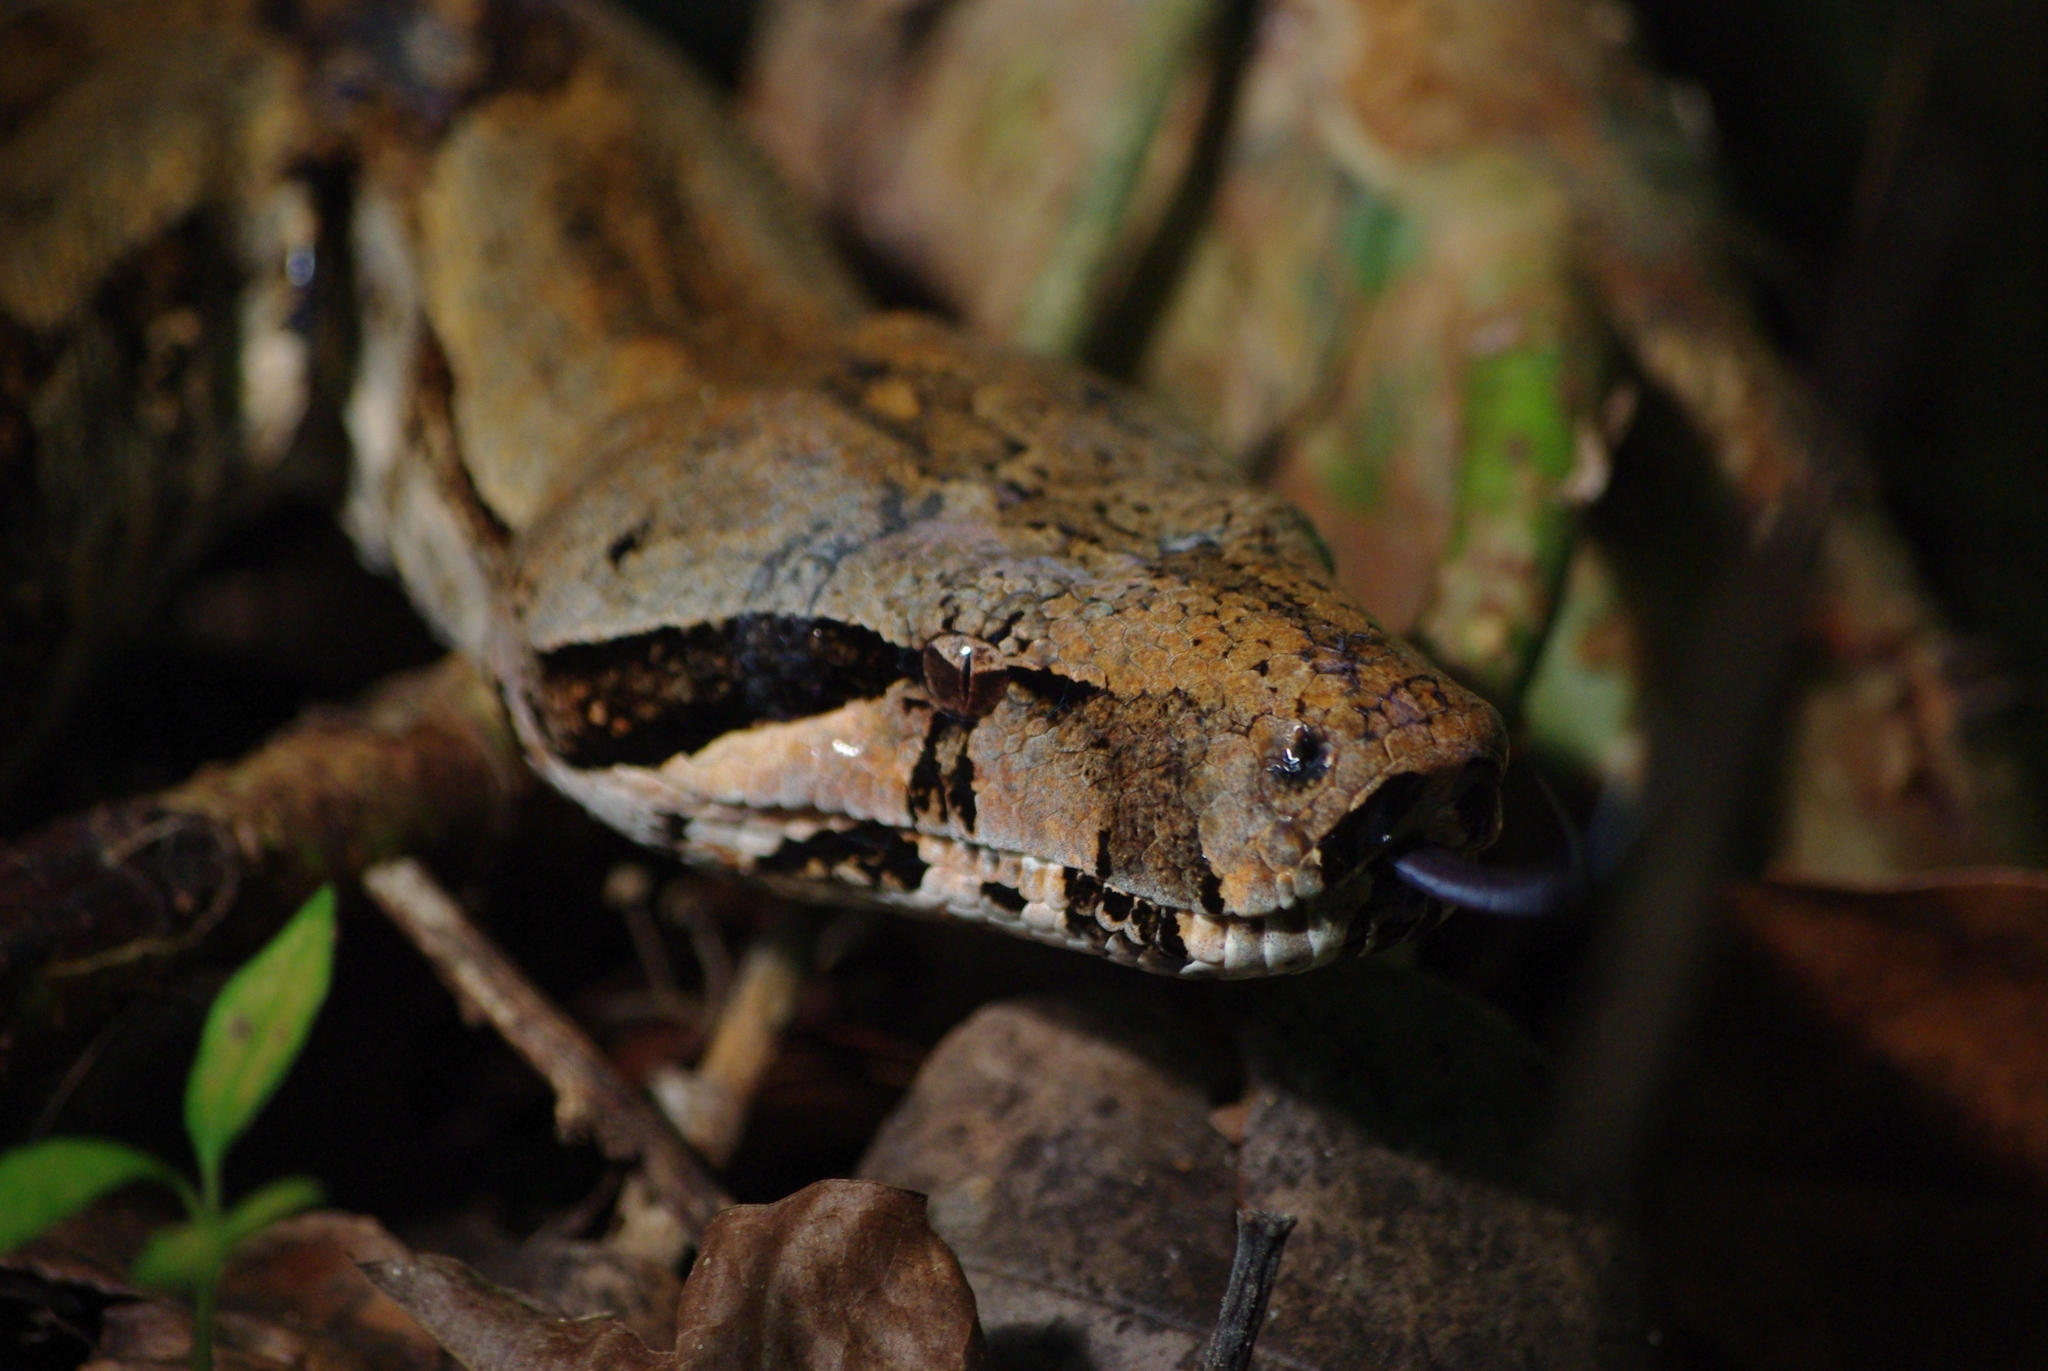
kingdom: Animalia
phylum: Chordata
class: Squamata
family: Boidae
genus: Boa
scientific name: Boa orophias
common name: Tet’chien or st. lucian boa
